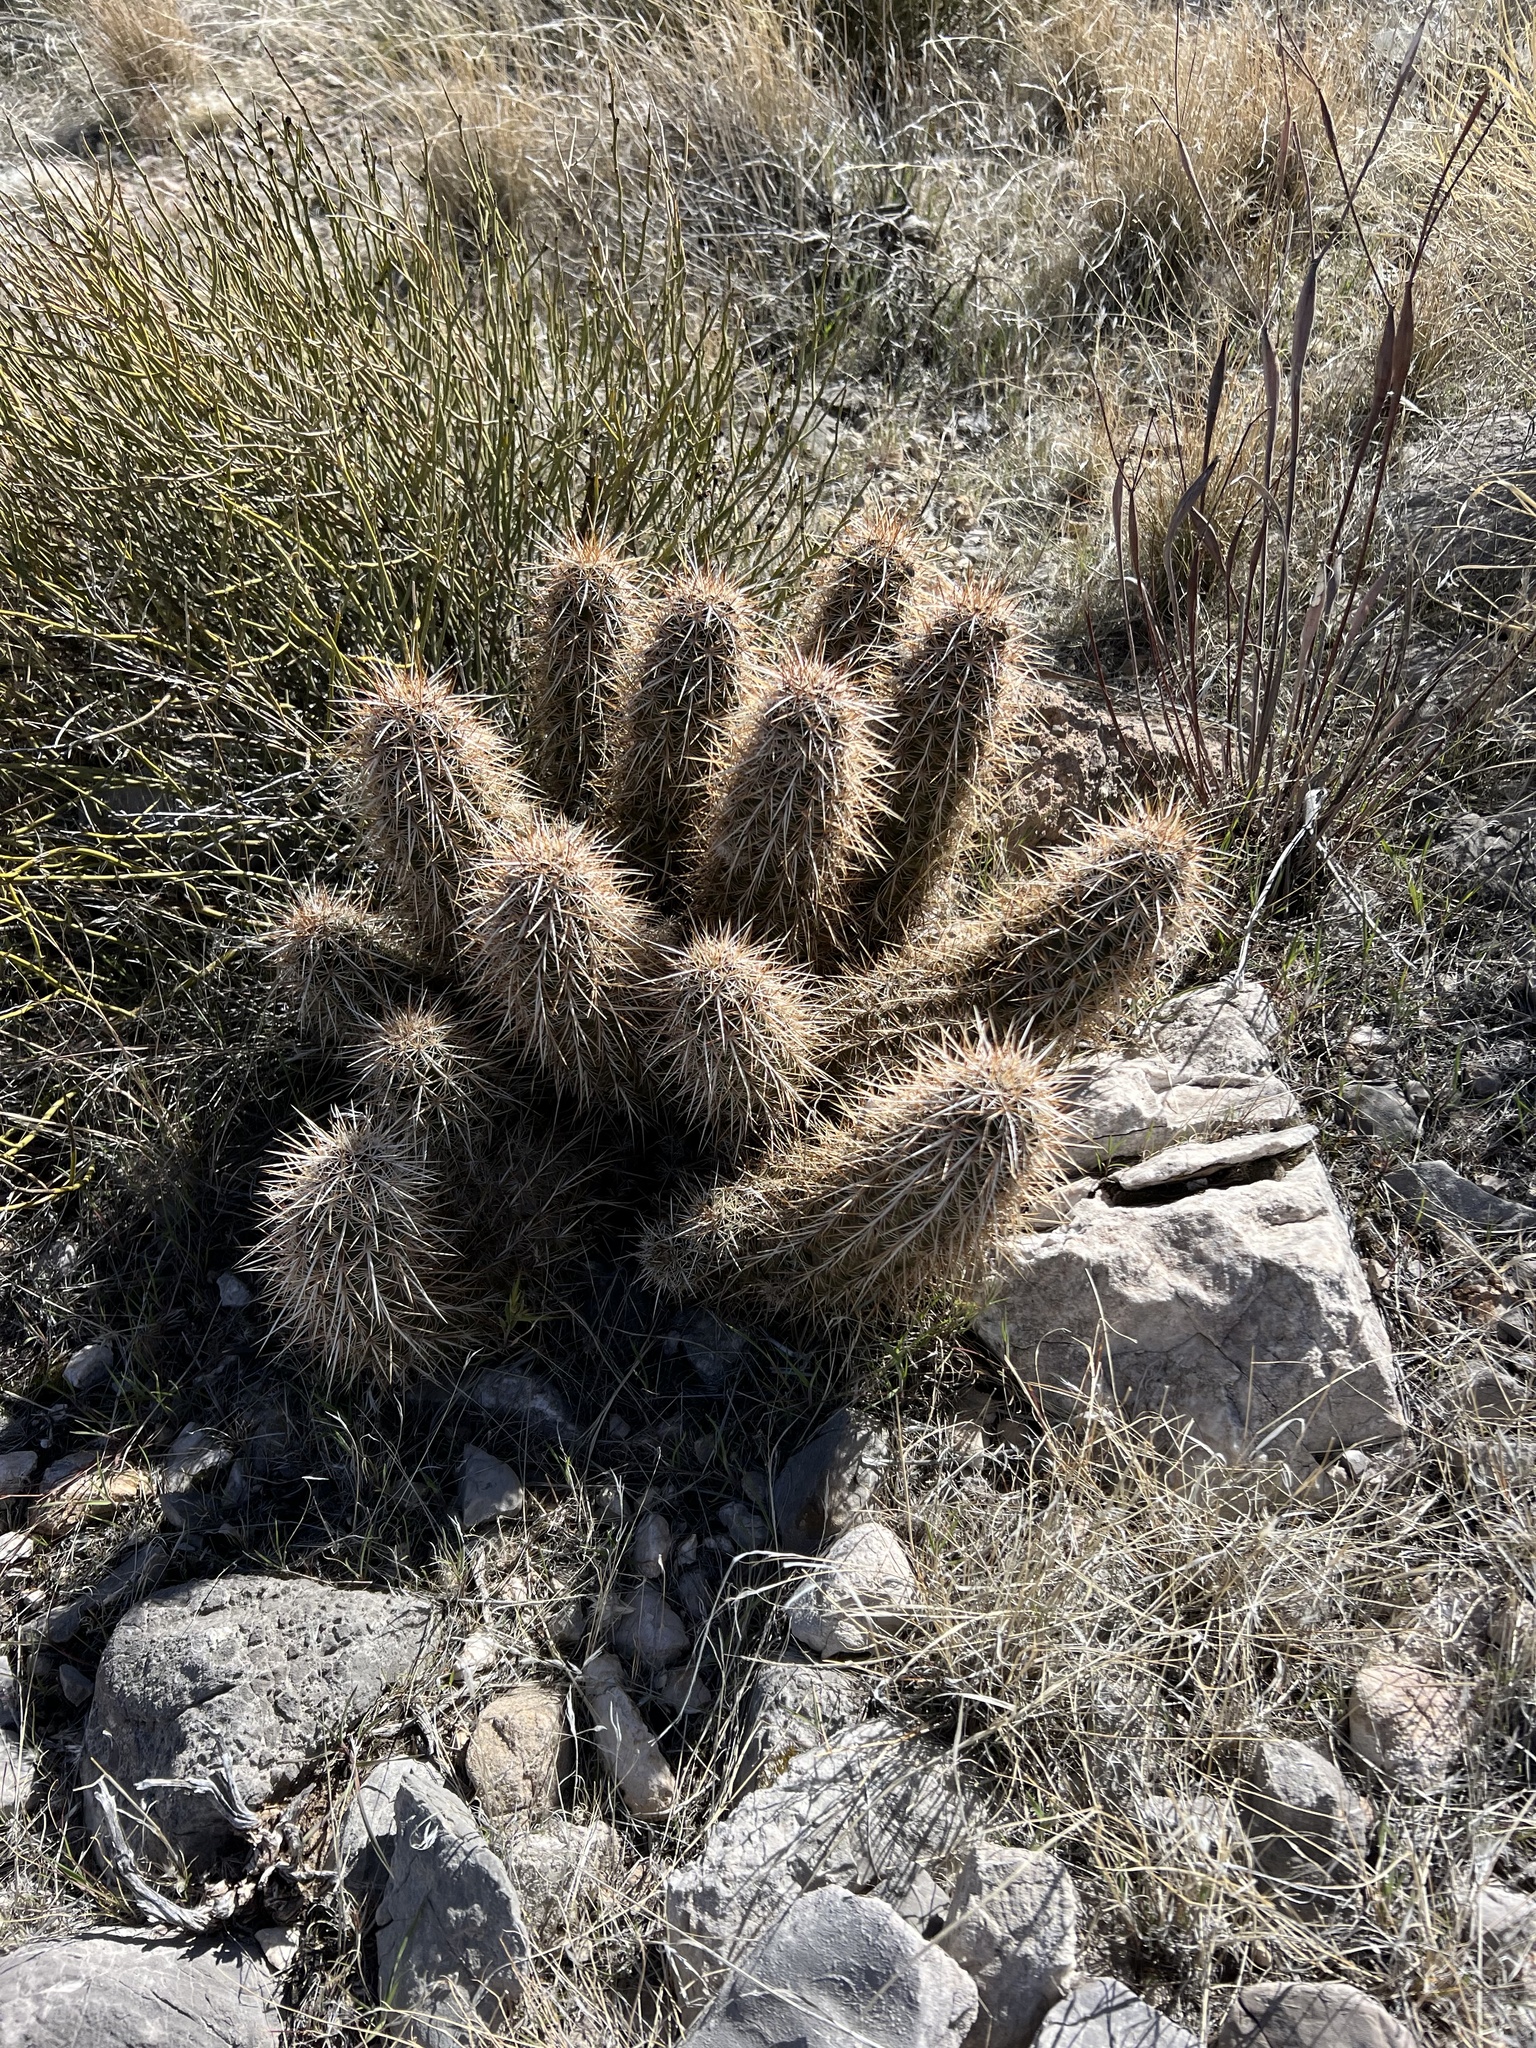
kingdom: Plantae
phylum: Tracheophyta
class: Magnoliopsida
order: Caryophyllales
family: Cactaceae
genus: Echinocereus
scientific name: Echinocereus engelmannii
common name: Engelmann's hedgehog cactus
